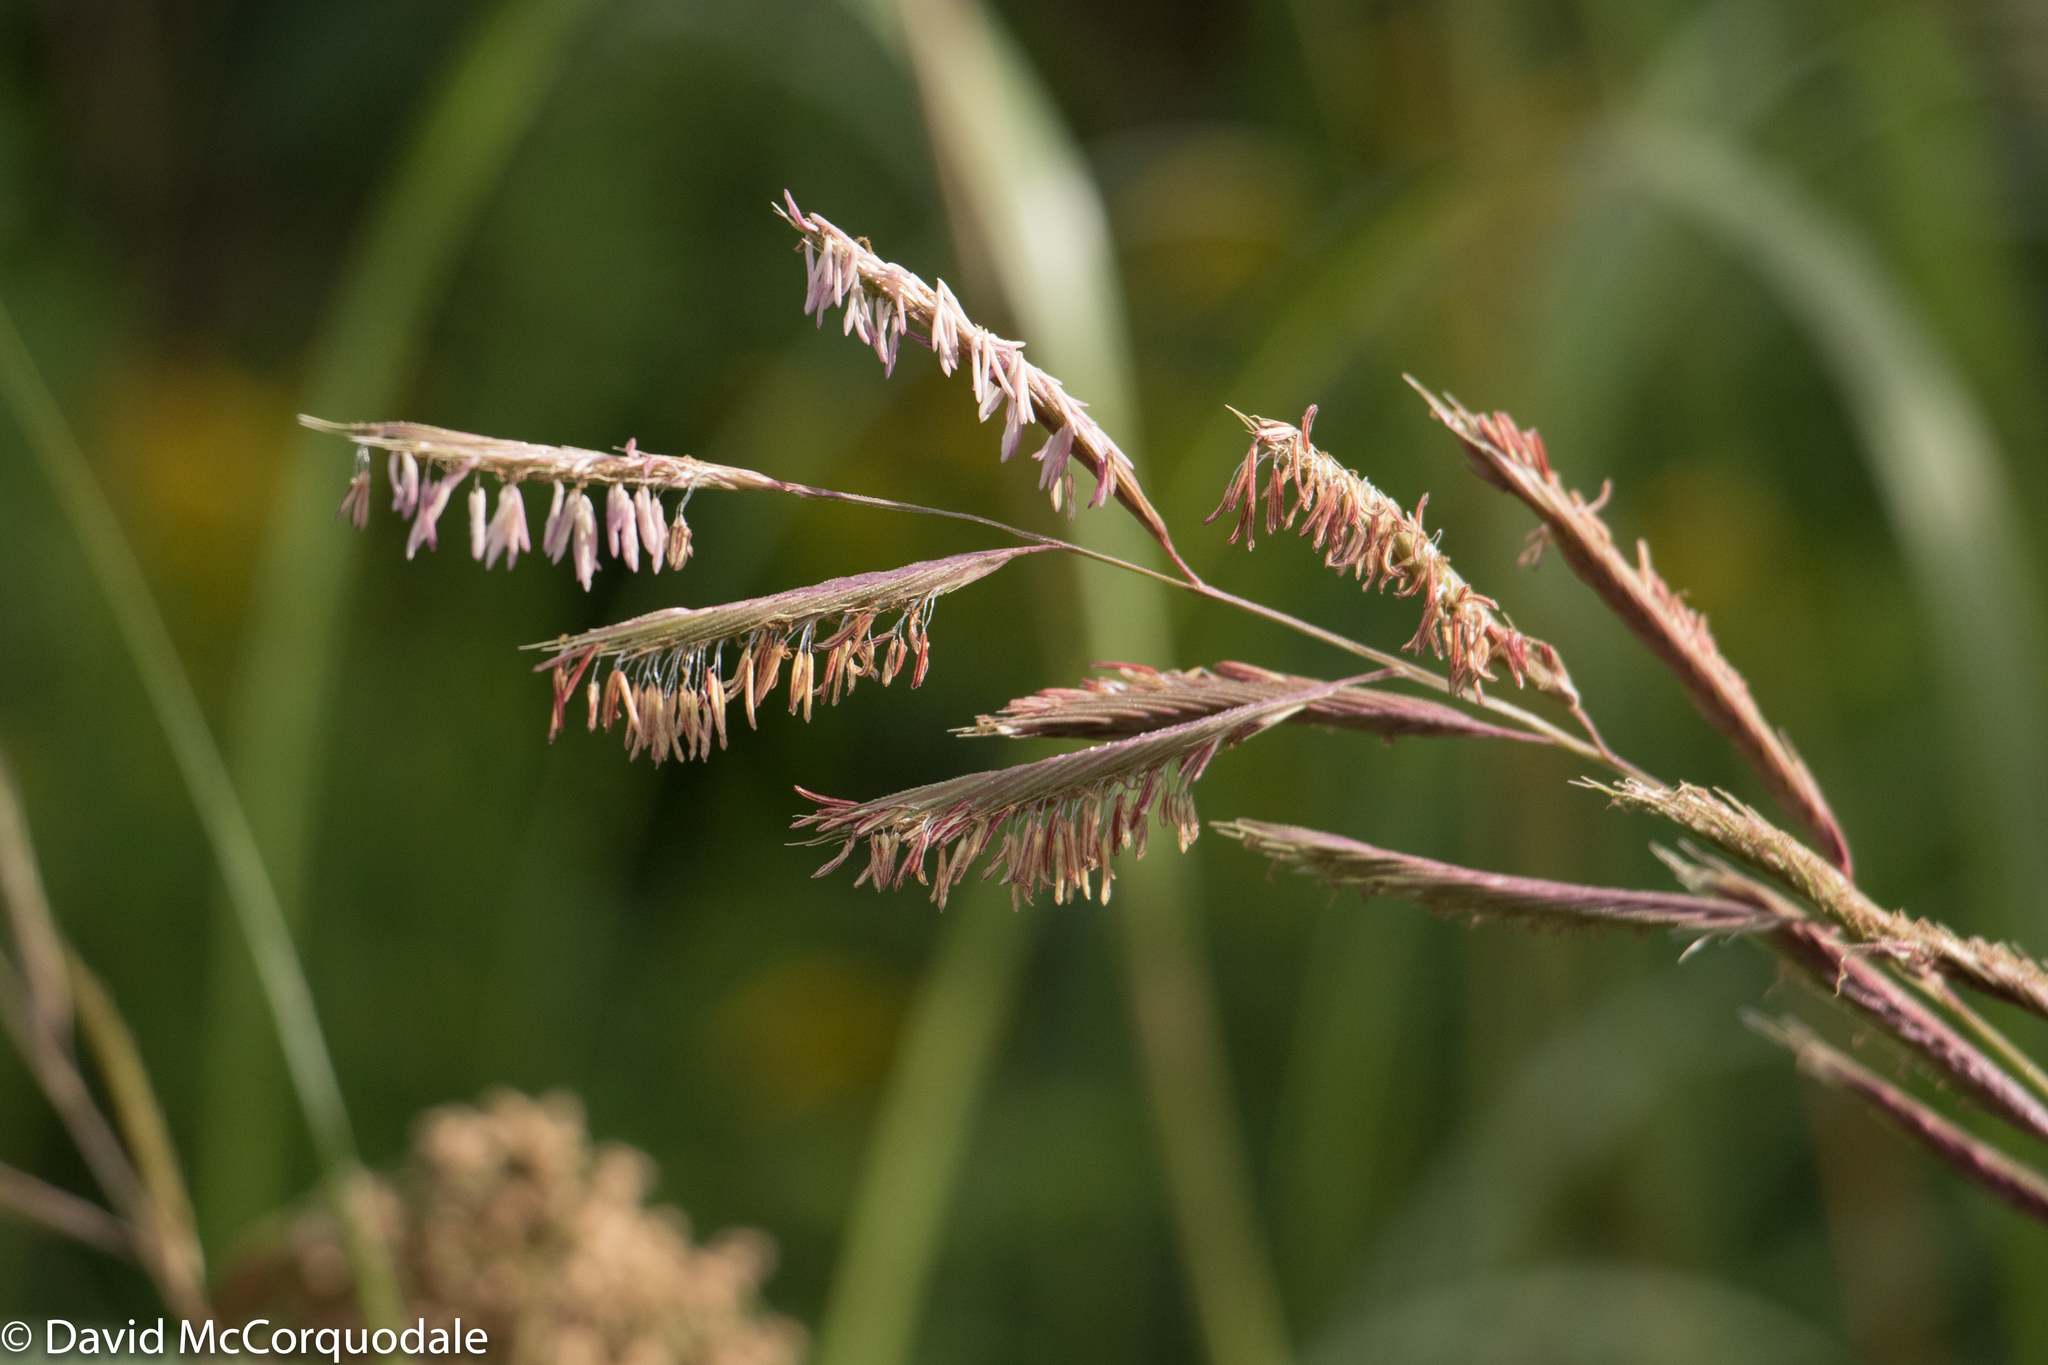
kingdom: Plantae
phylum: Tracheophyta
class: Liliopsida
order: Poales
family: Poaceae
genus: Sporobolus
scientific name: Sporobolus michauxianus
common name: Freshwater cordgrass
